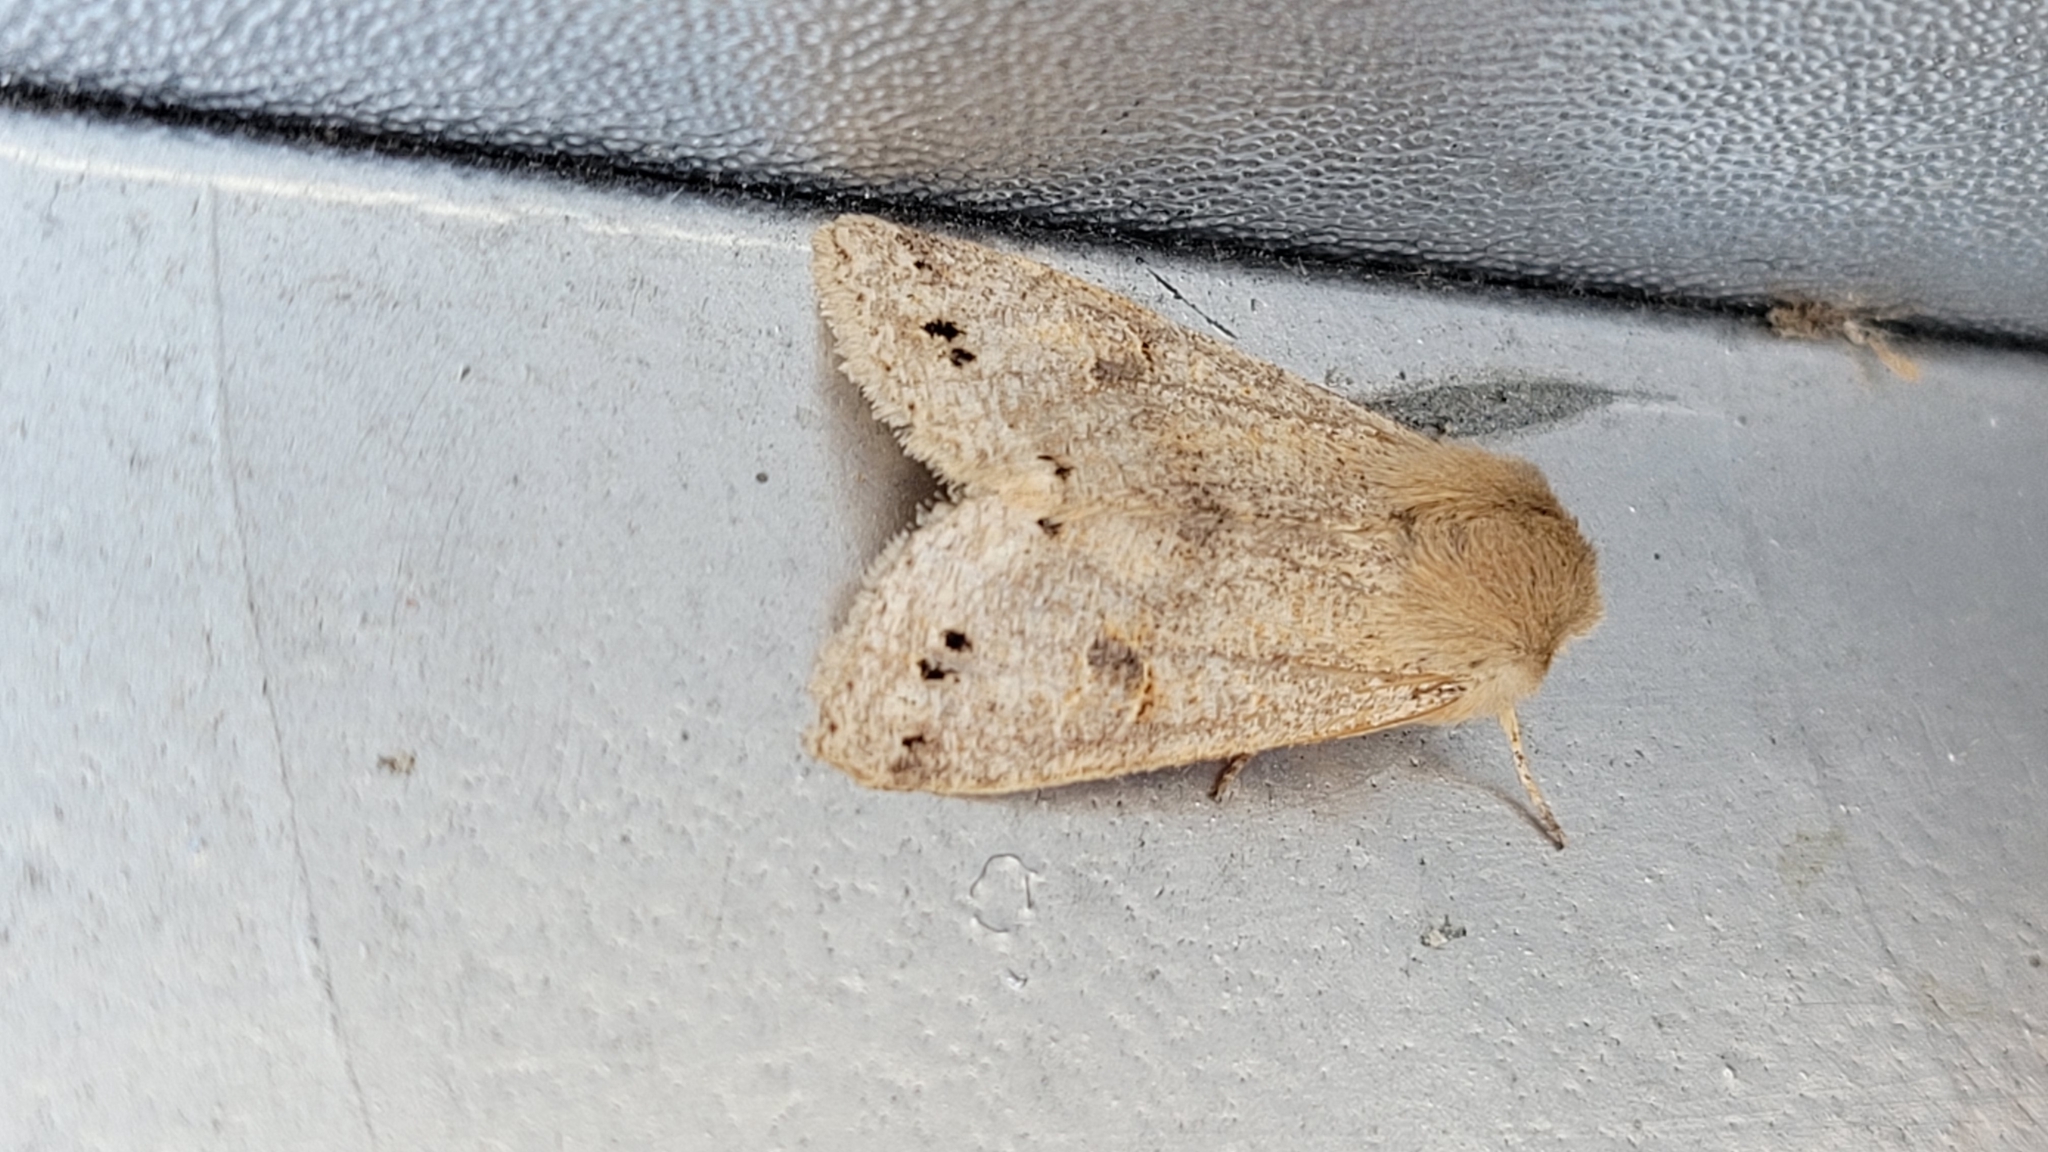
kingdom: Animalia
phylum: Arthropoda
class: Insecta
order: Lepidoptera
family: Noctuidae
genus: Anorthoa
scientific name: Anorthoa munda
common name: Twin-spotted quaker
